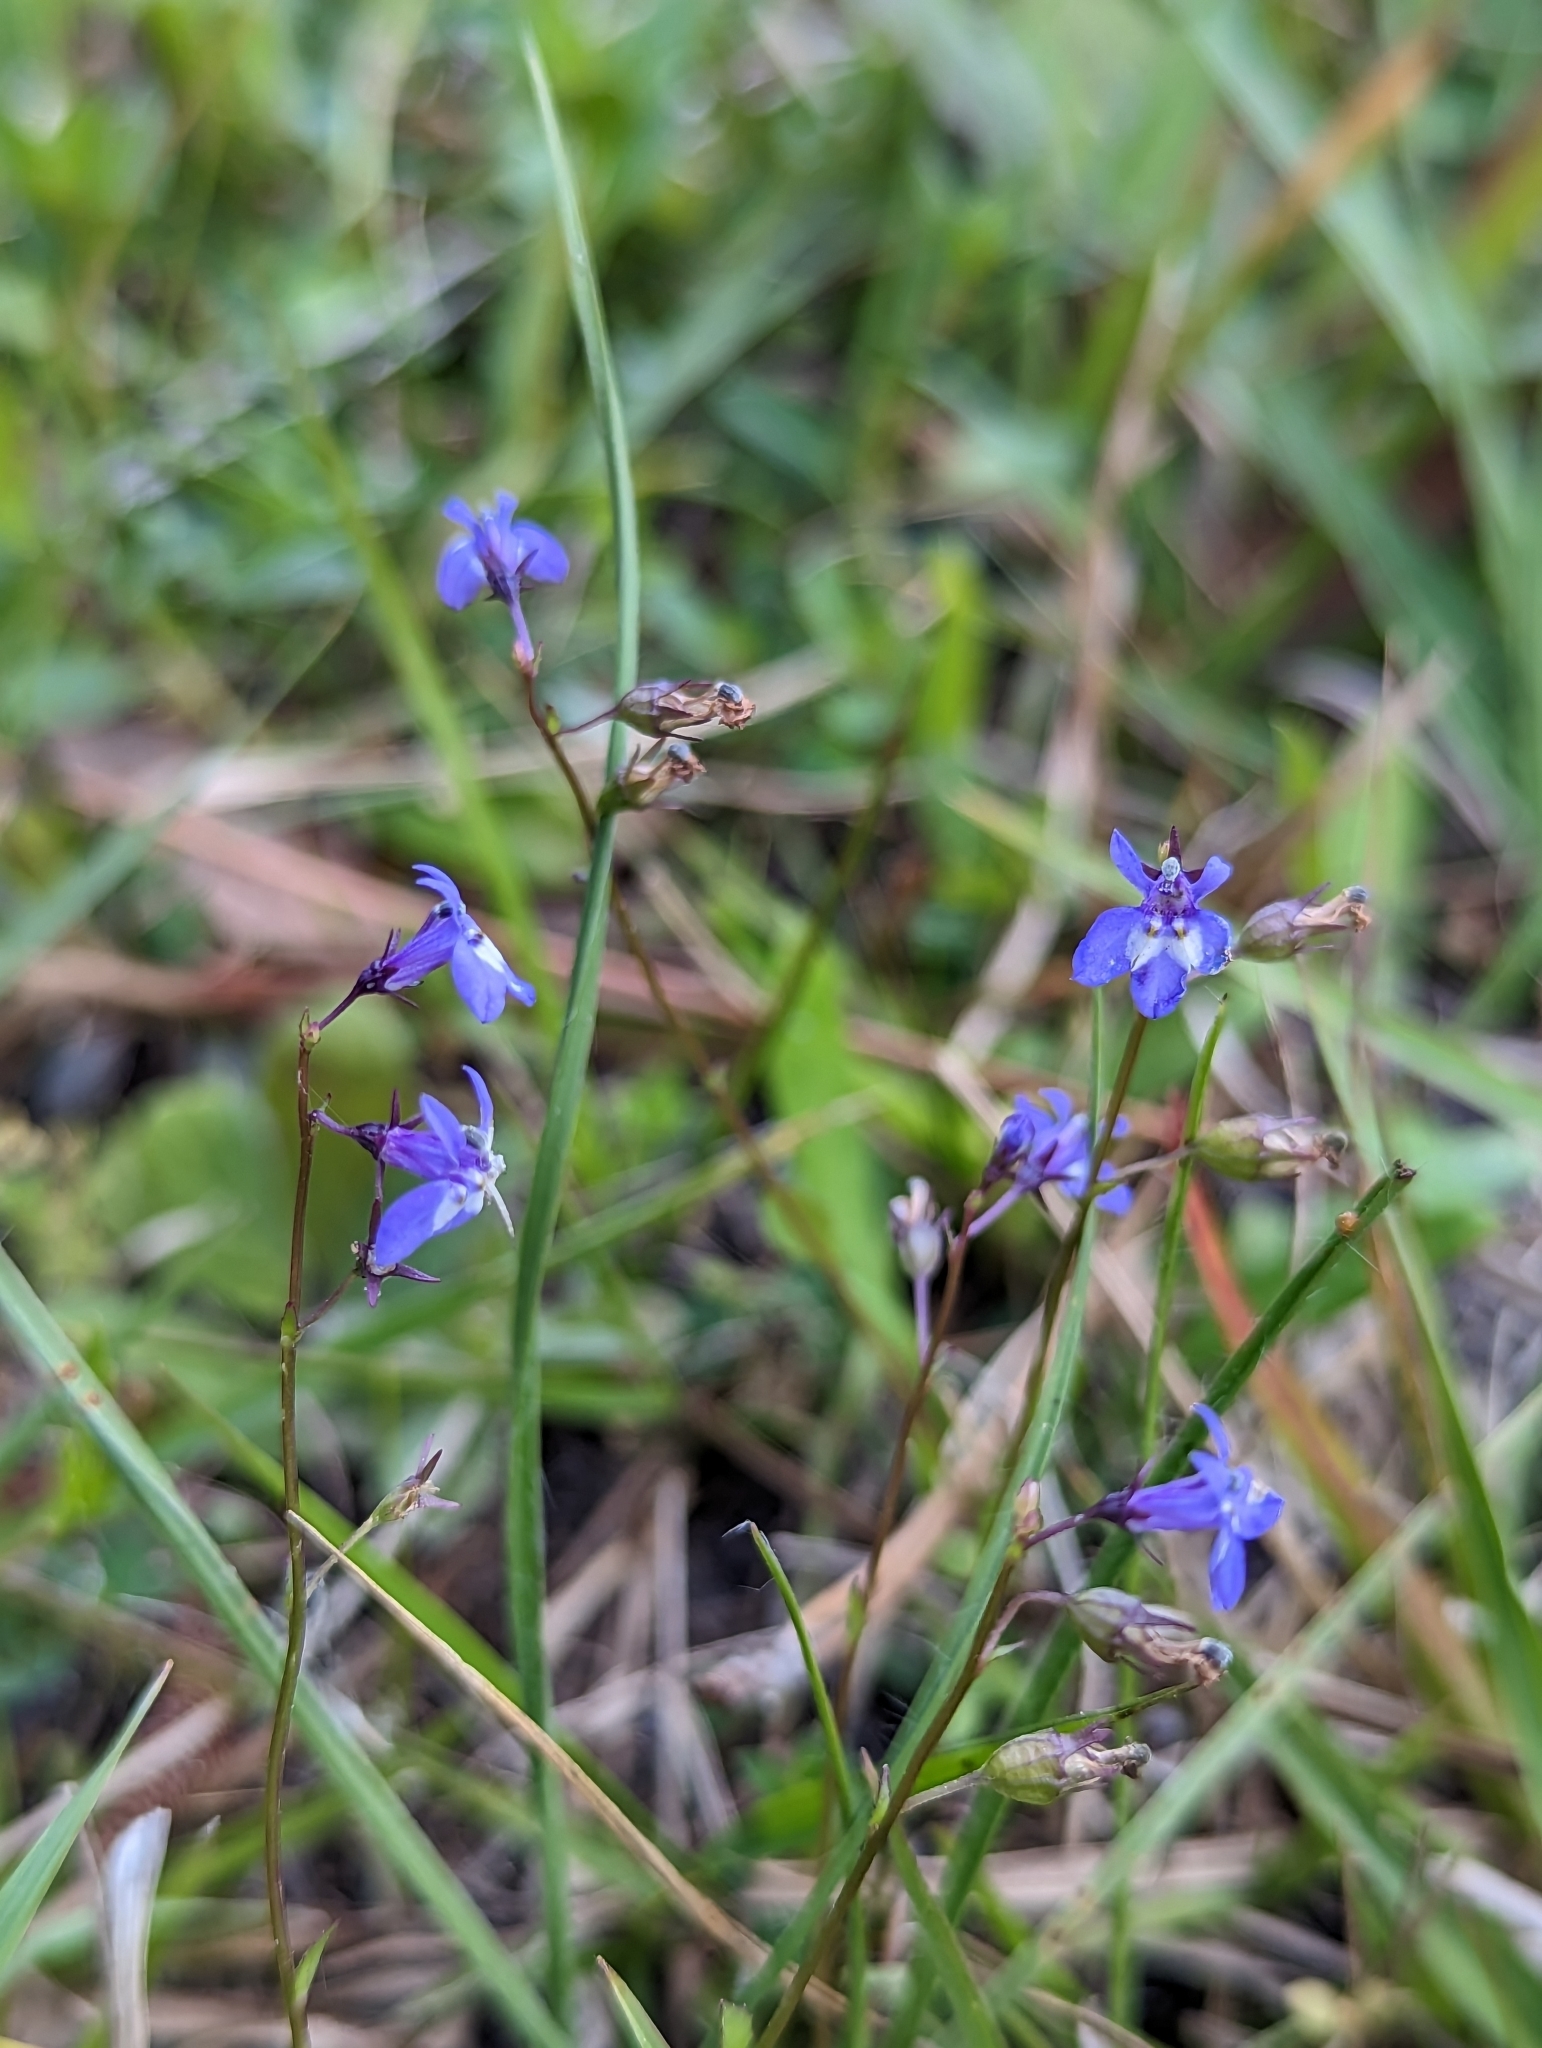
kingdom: Plantae
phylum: Tracheophyta
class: Magnoliopsida
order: Asterales
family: Campanulaceae
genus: Lobelia
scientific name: Lobelia feayana
